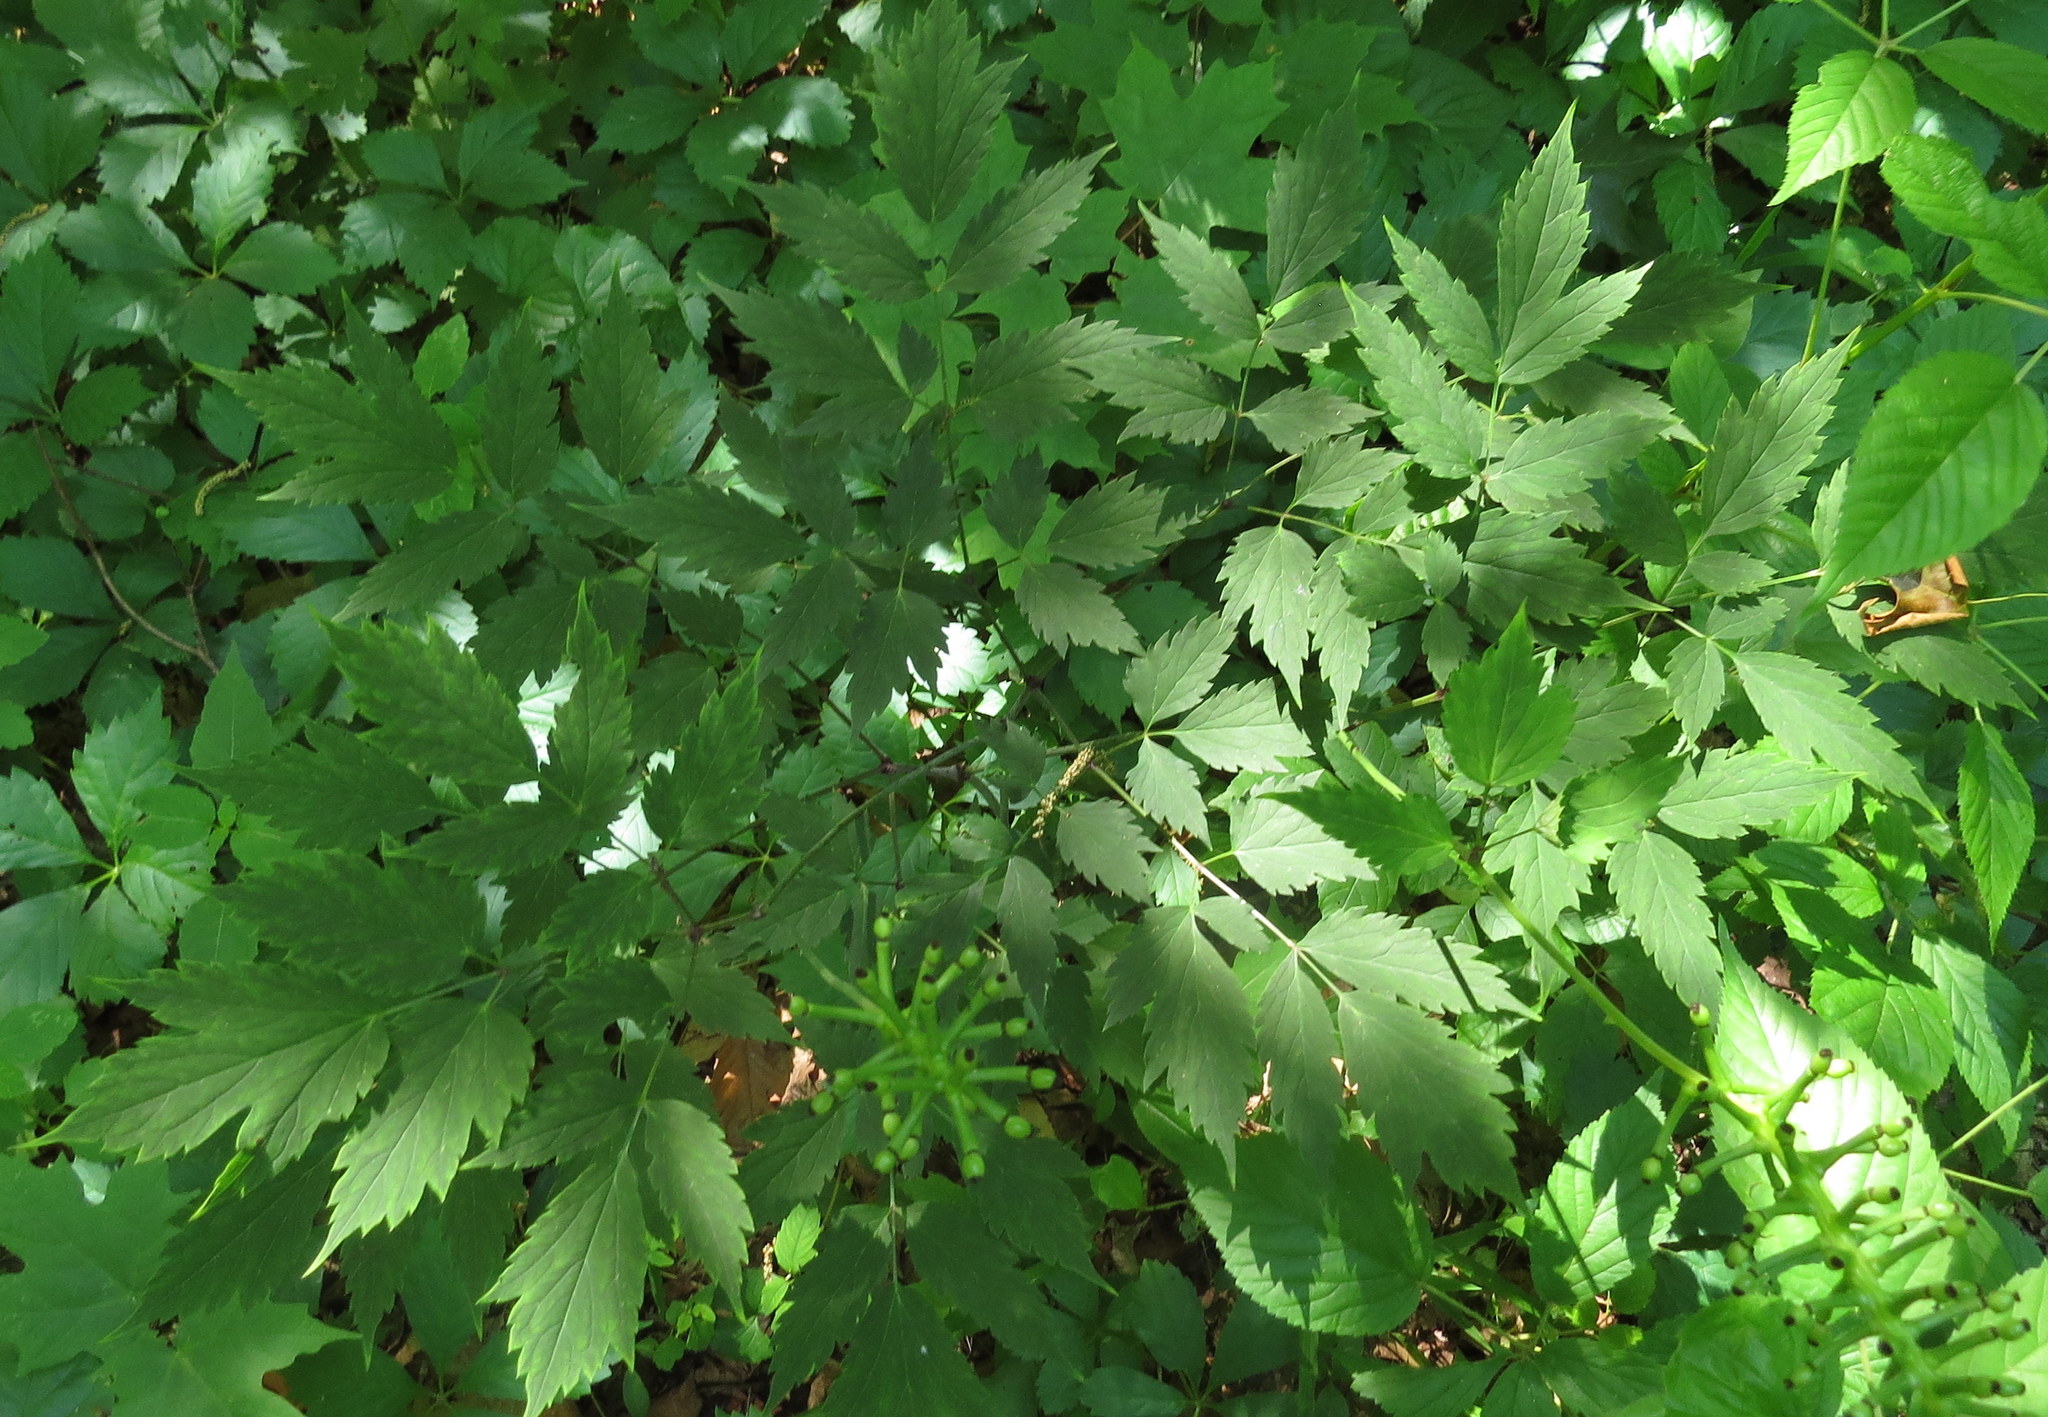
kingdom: Plantae
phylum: Tracheophyta
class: Magnoliopsida
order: Ranunculales
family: Ranunculaceae
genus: Actaea
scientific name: Actaea pachypoda
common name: Doll's-eyes
